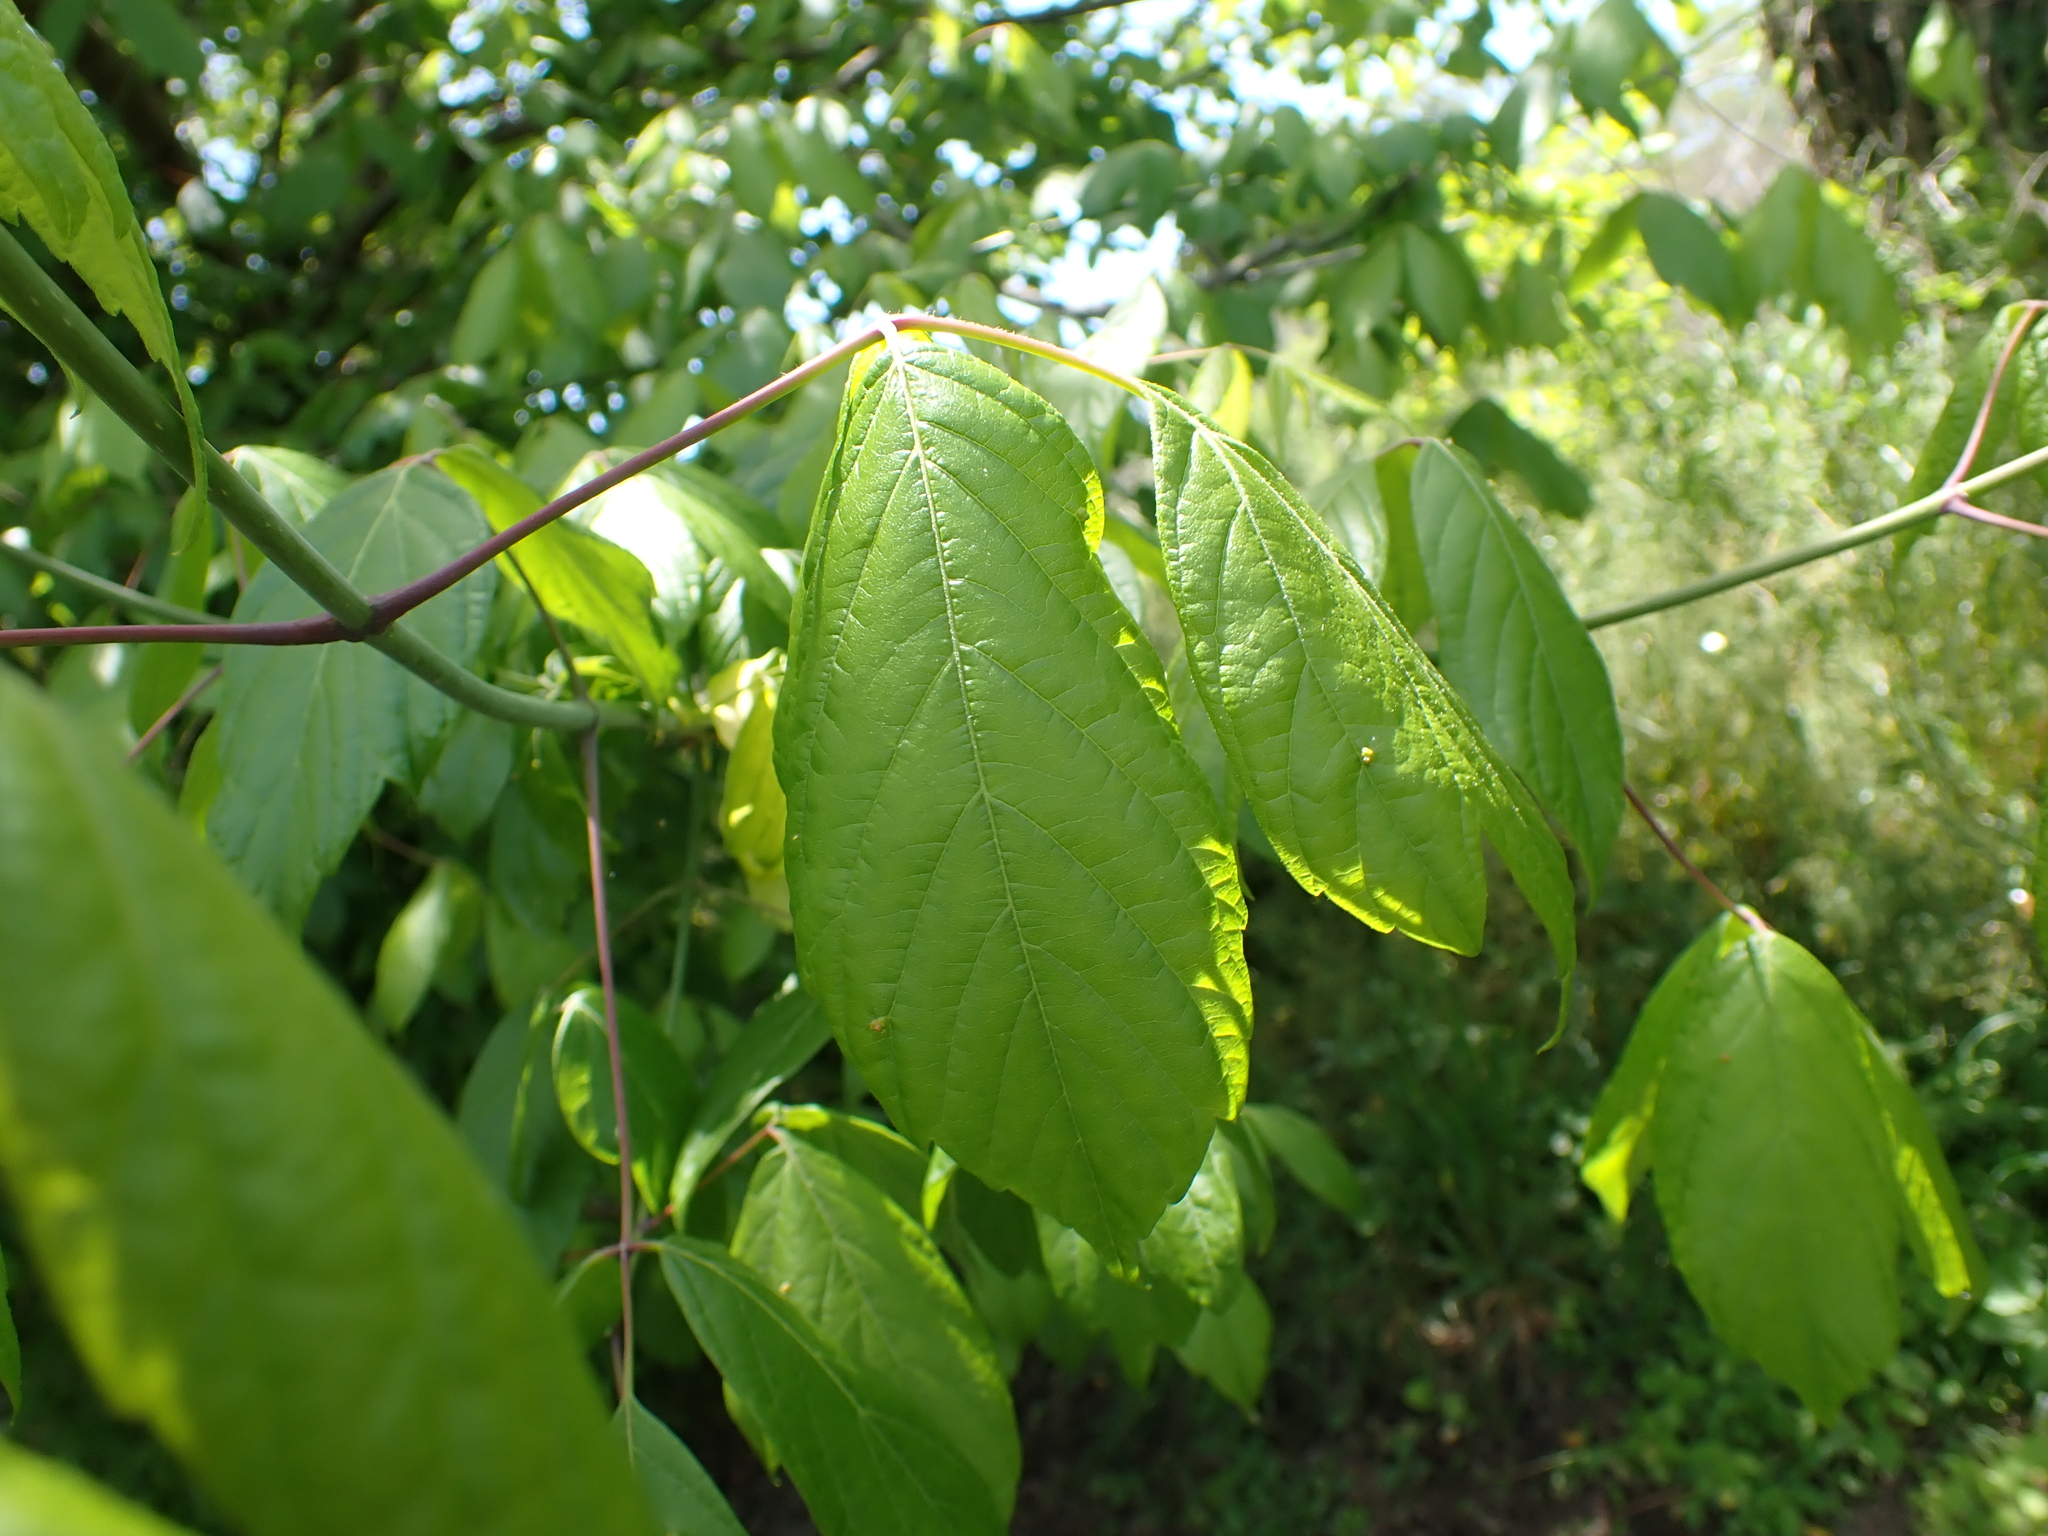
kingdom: Plantae
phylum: Tracheophyta
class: Magnoliopsida
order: Sapindales
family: Sapindaceae
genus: Acer
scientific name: Acer negundo
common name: Ashleaf maple
